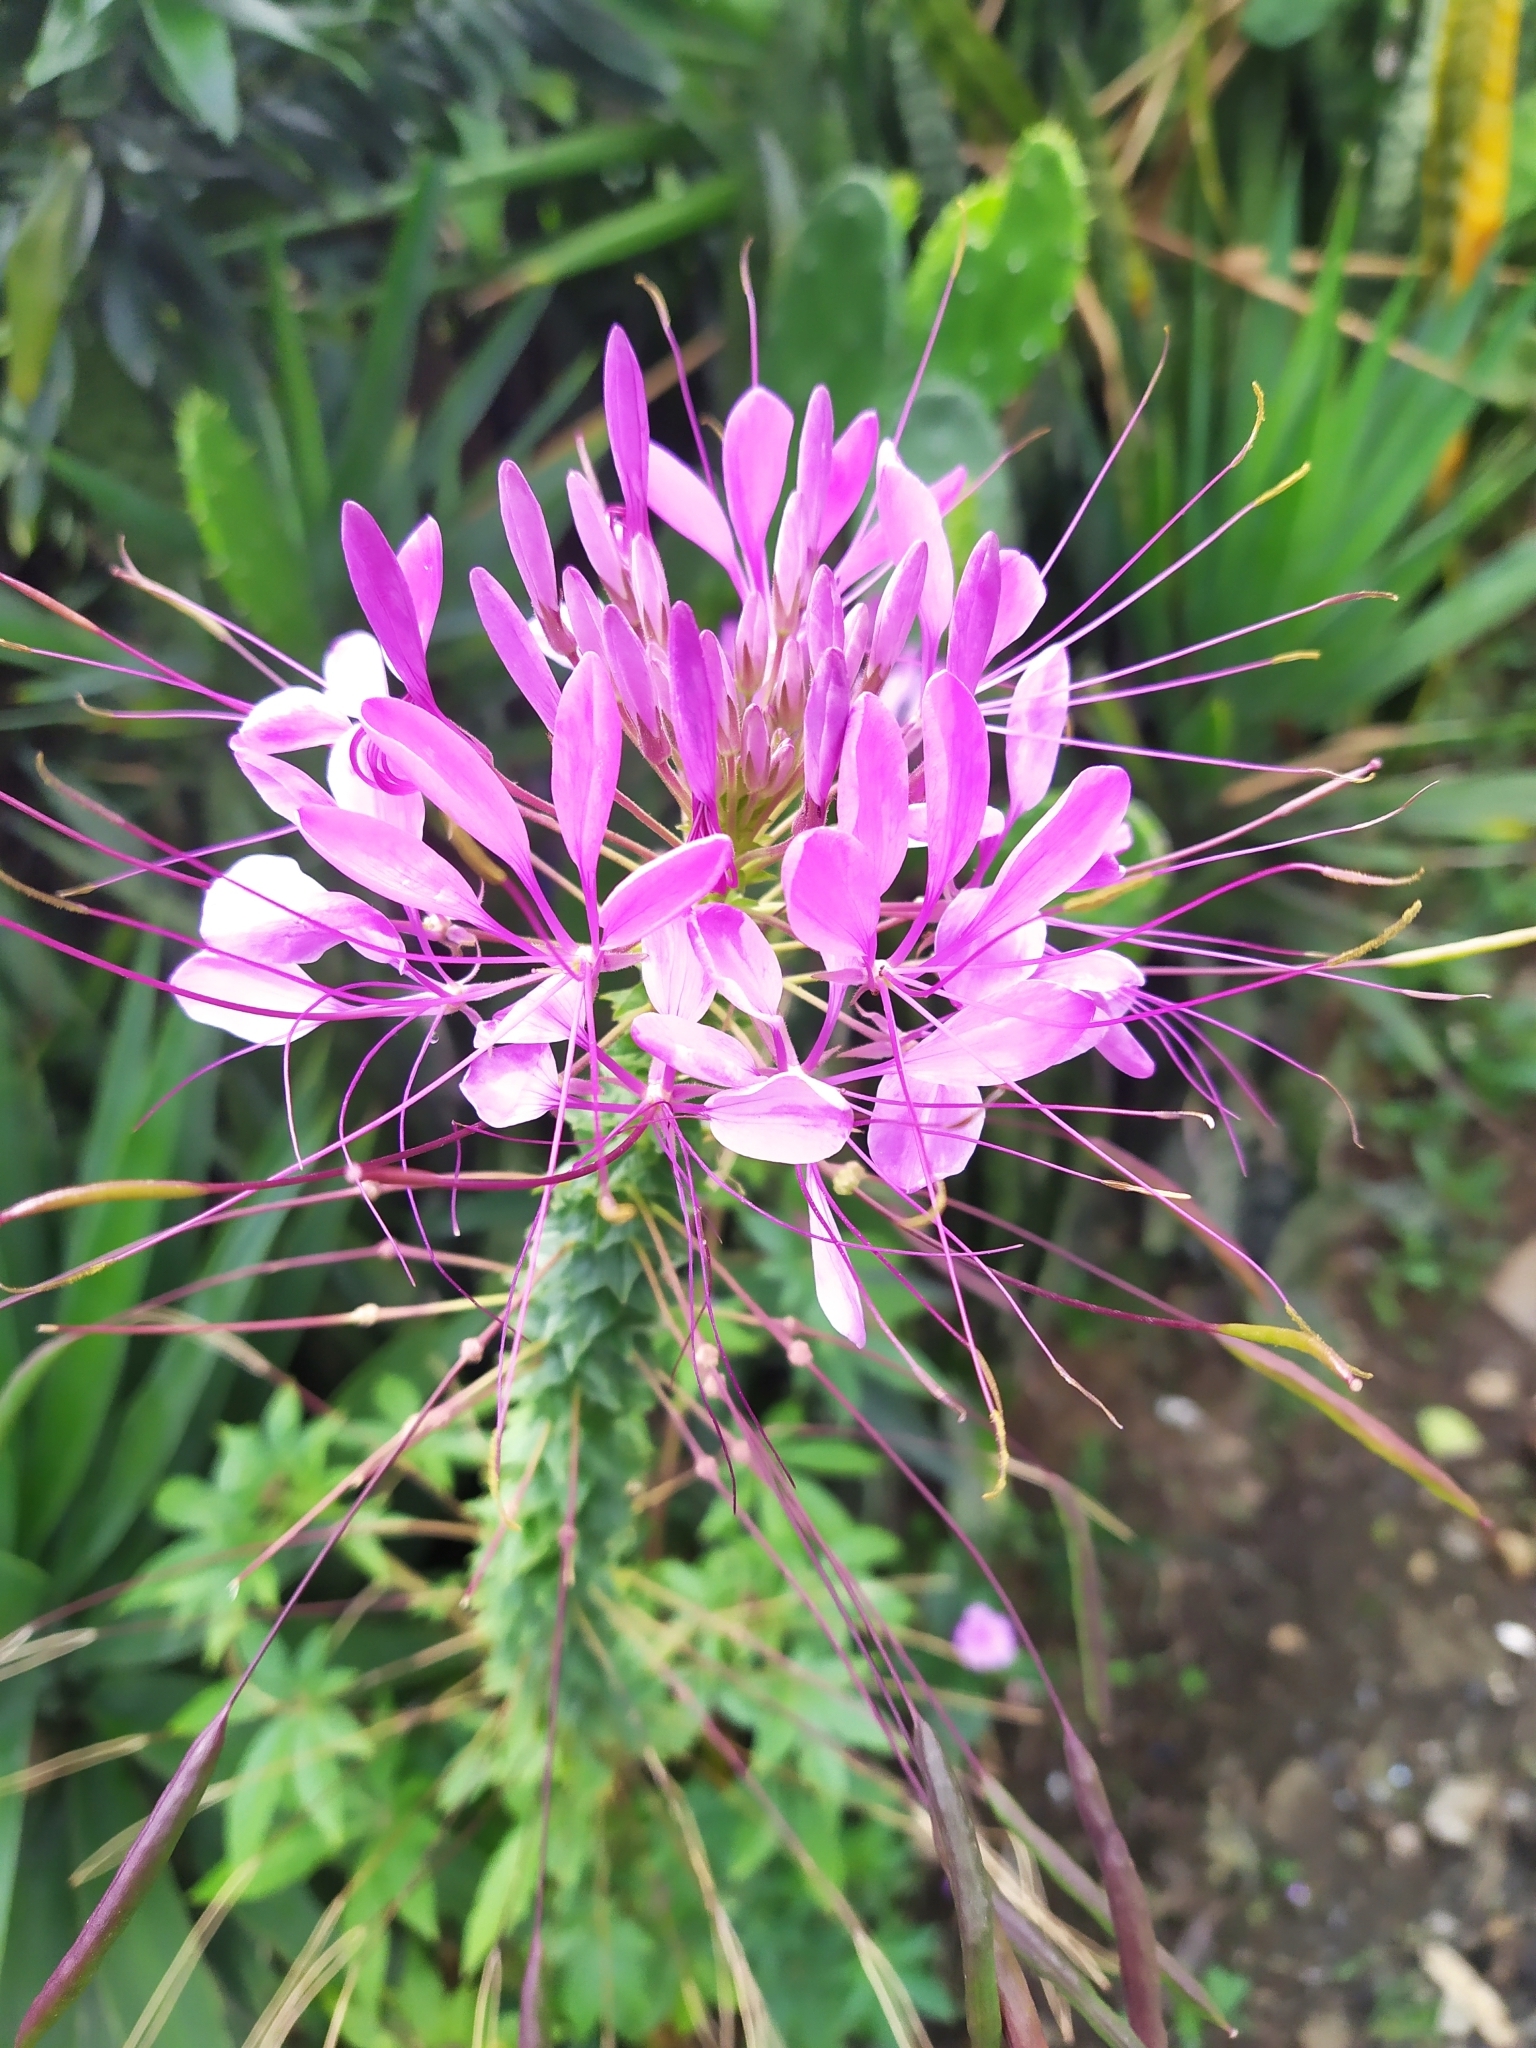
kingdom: Plantae
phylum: Tracheophyta
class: Magnoliopsida
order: Brassicales
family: Cleomaceae
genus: Tarenaya
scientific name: Tarenaya
